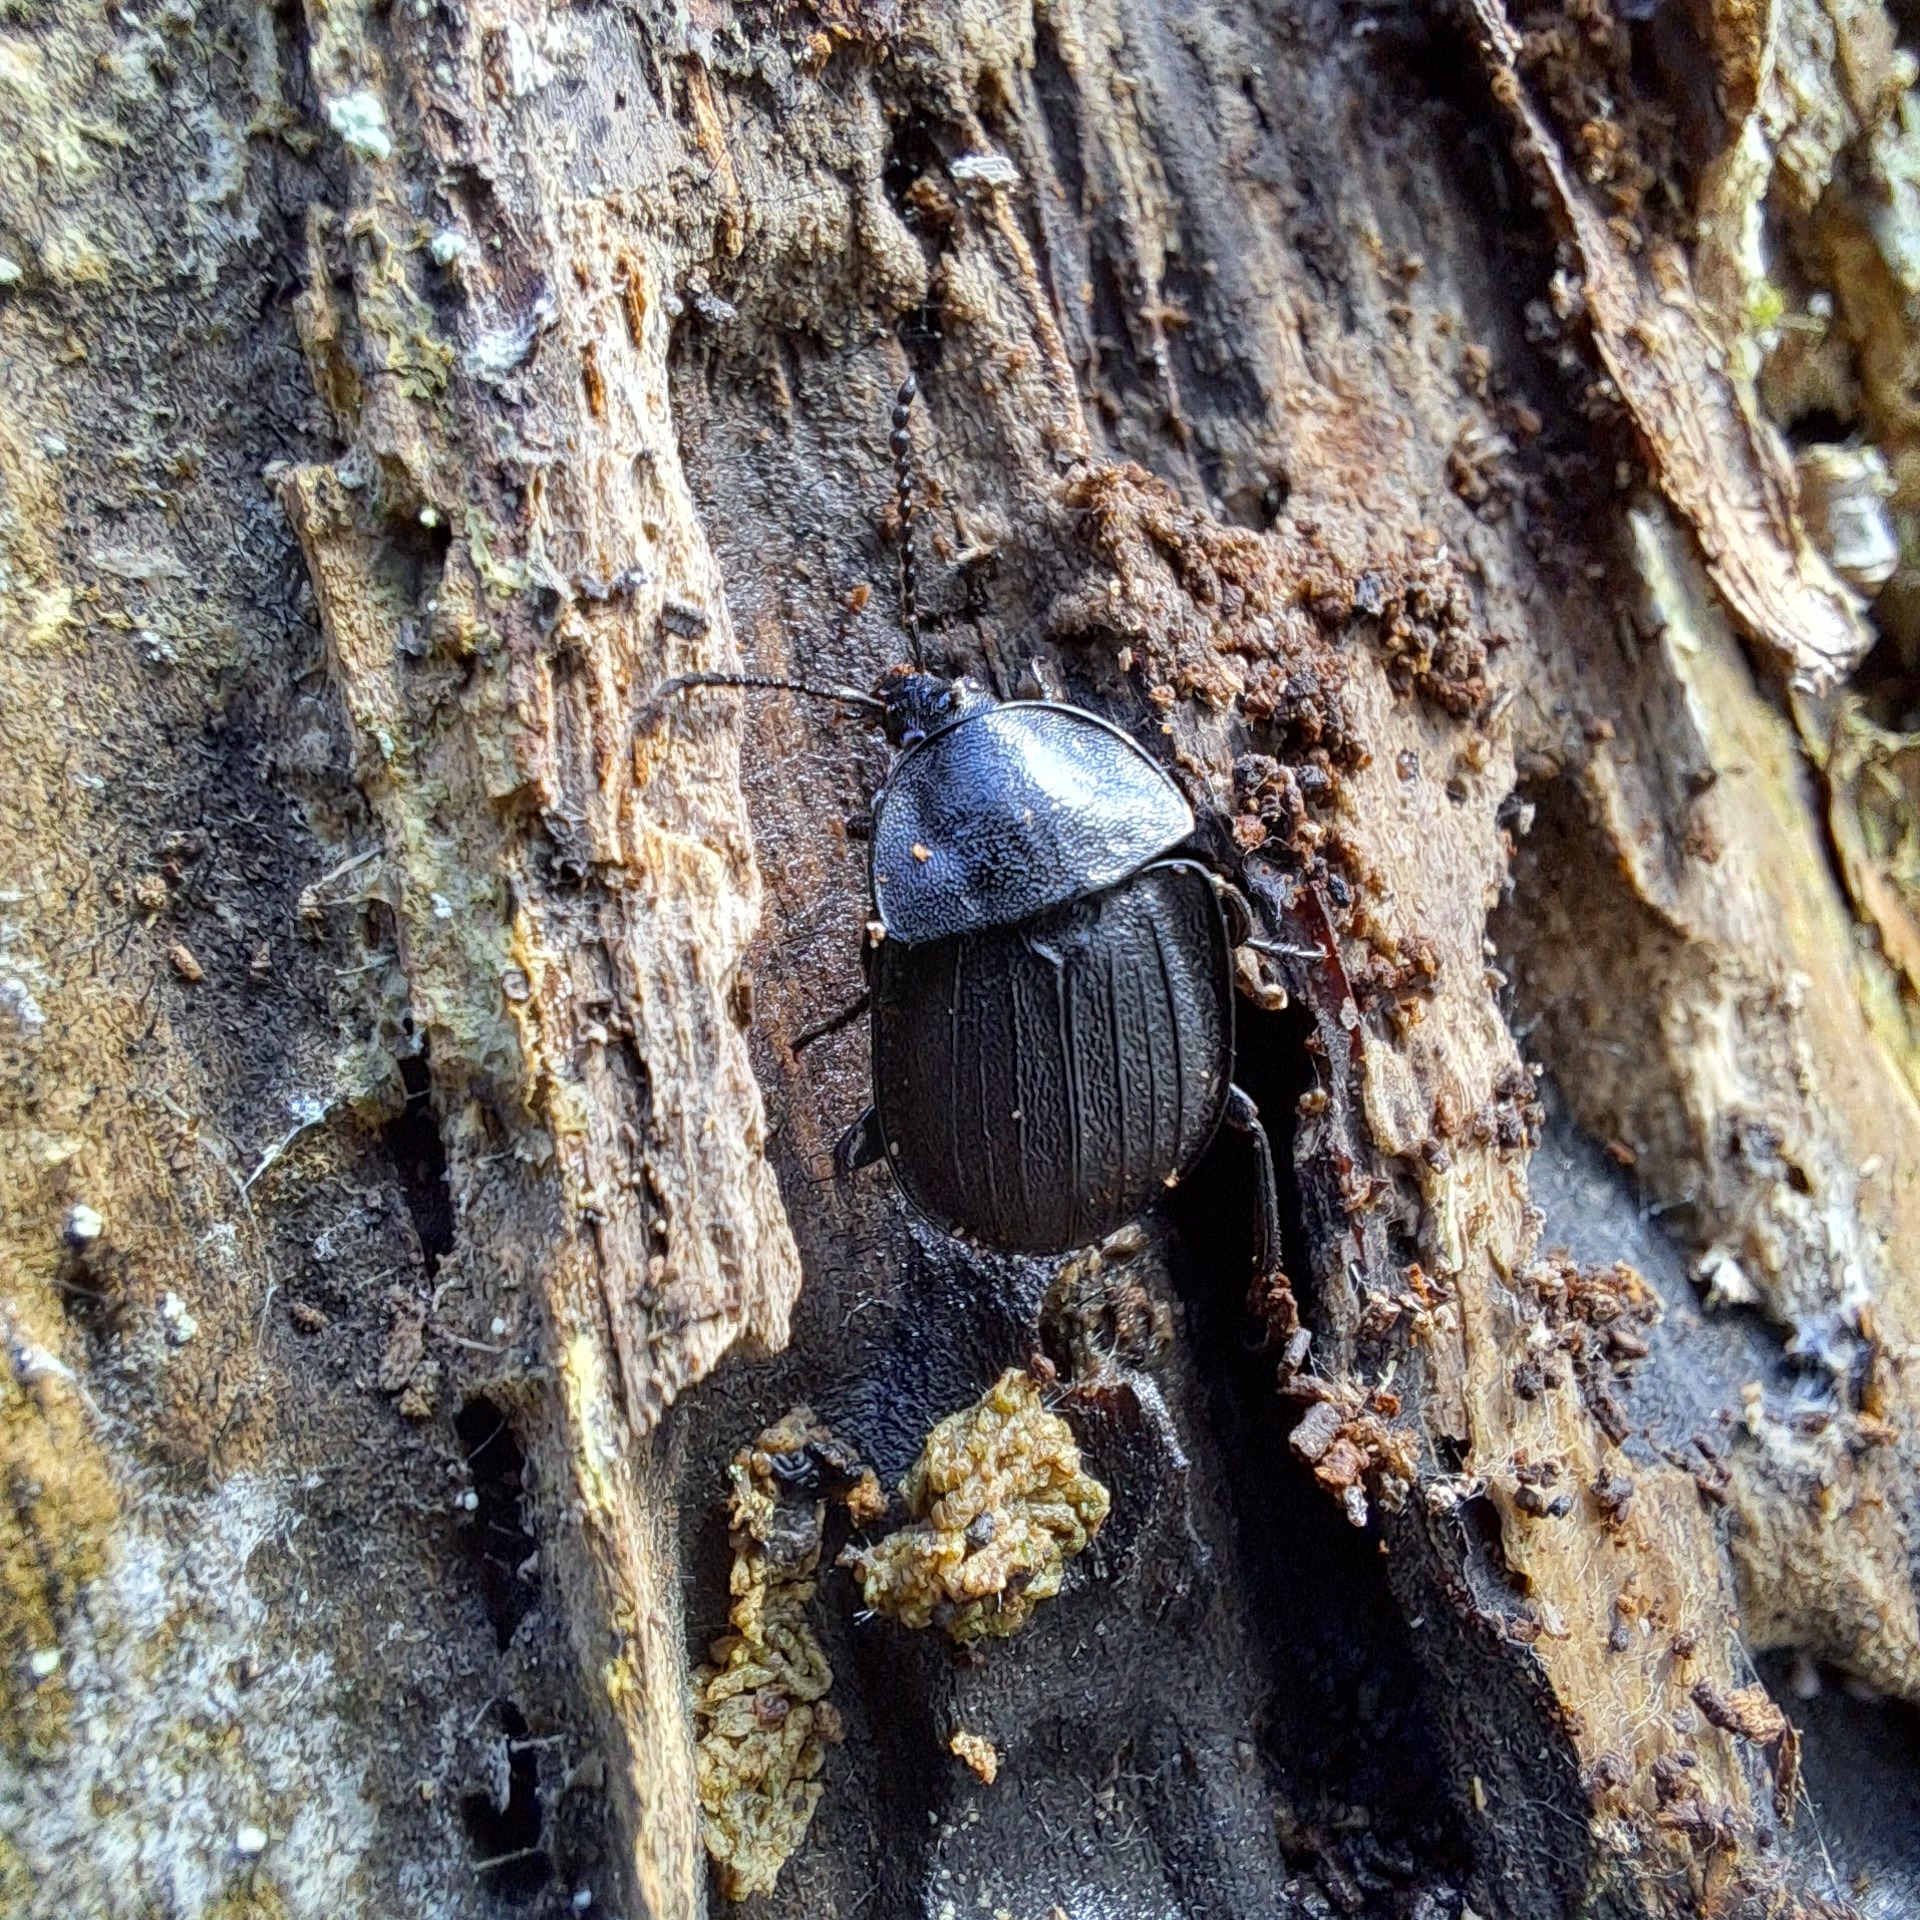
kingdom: Animalia
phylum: Arthropoda
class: Insecta
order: Coleoptera
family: Staphylinidae
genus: Silpha
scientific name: Silpha atrata
